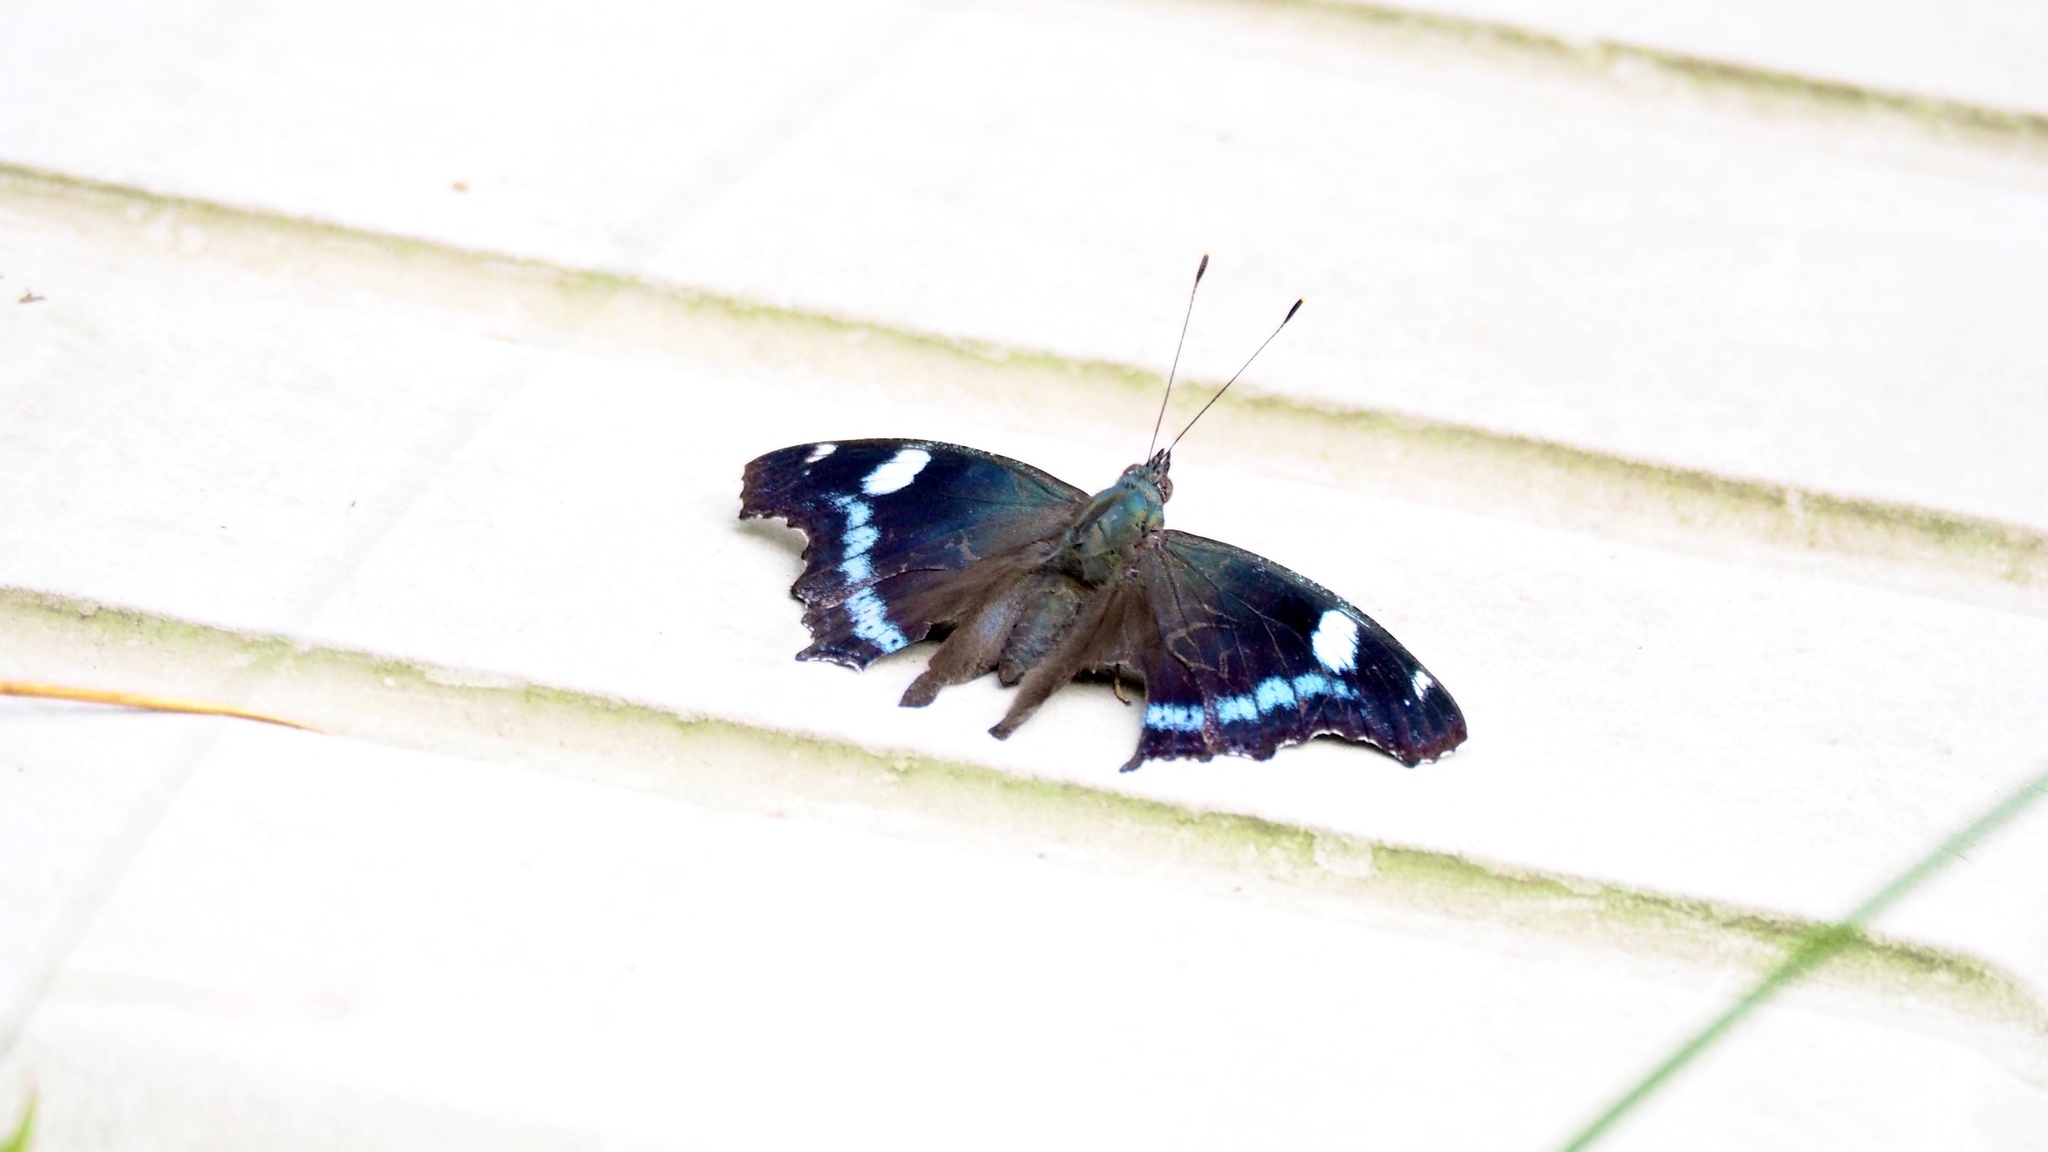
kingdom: Animalia
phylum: Arthropoda
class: Insecta
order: Lepidoptera
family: Nymphalidae
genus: Vanessa
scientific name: Vanessa Kaniska canace
